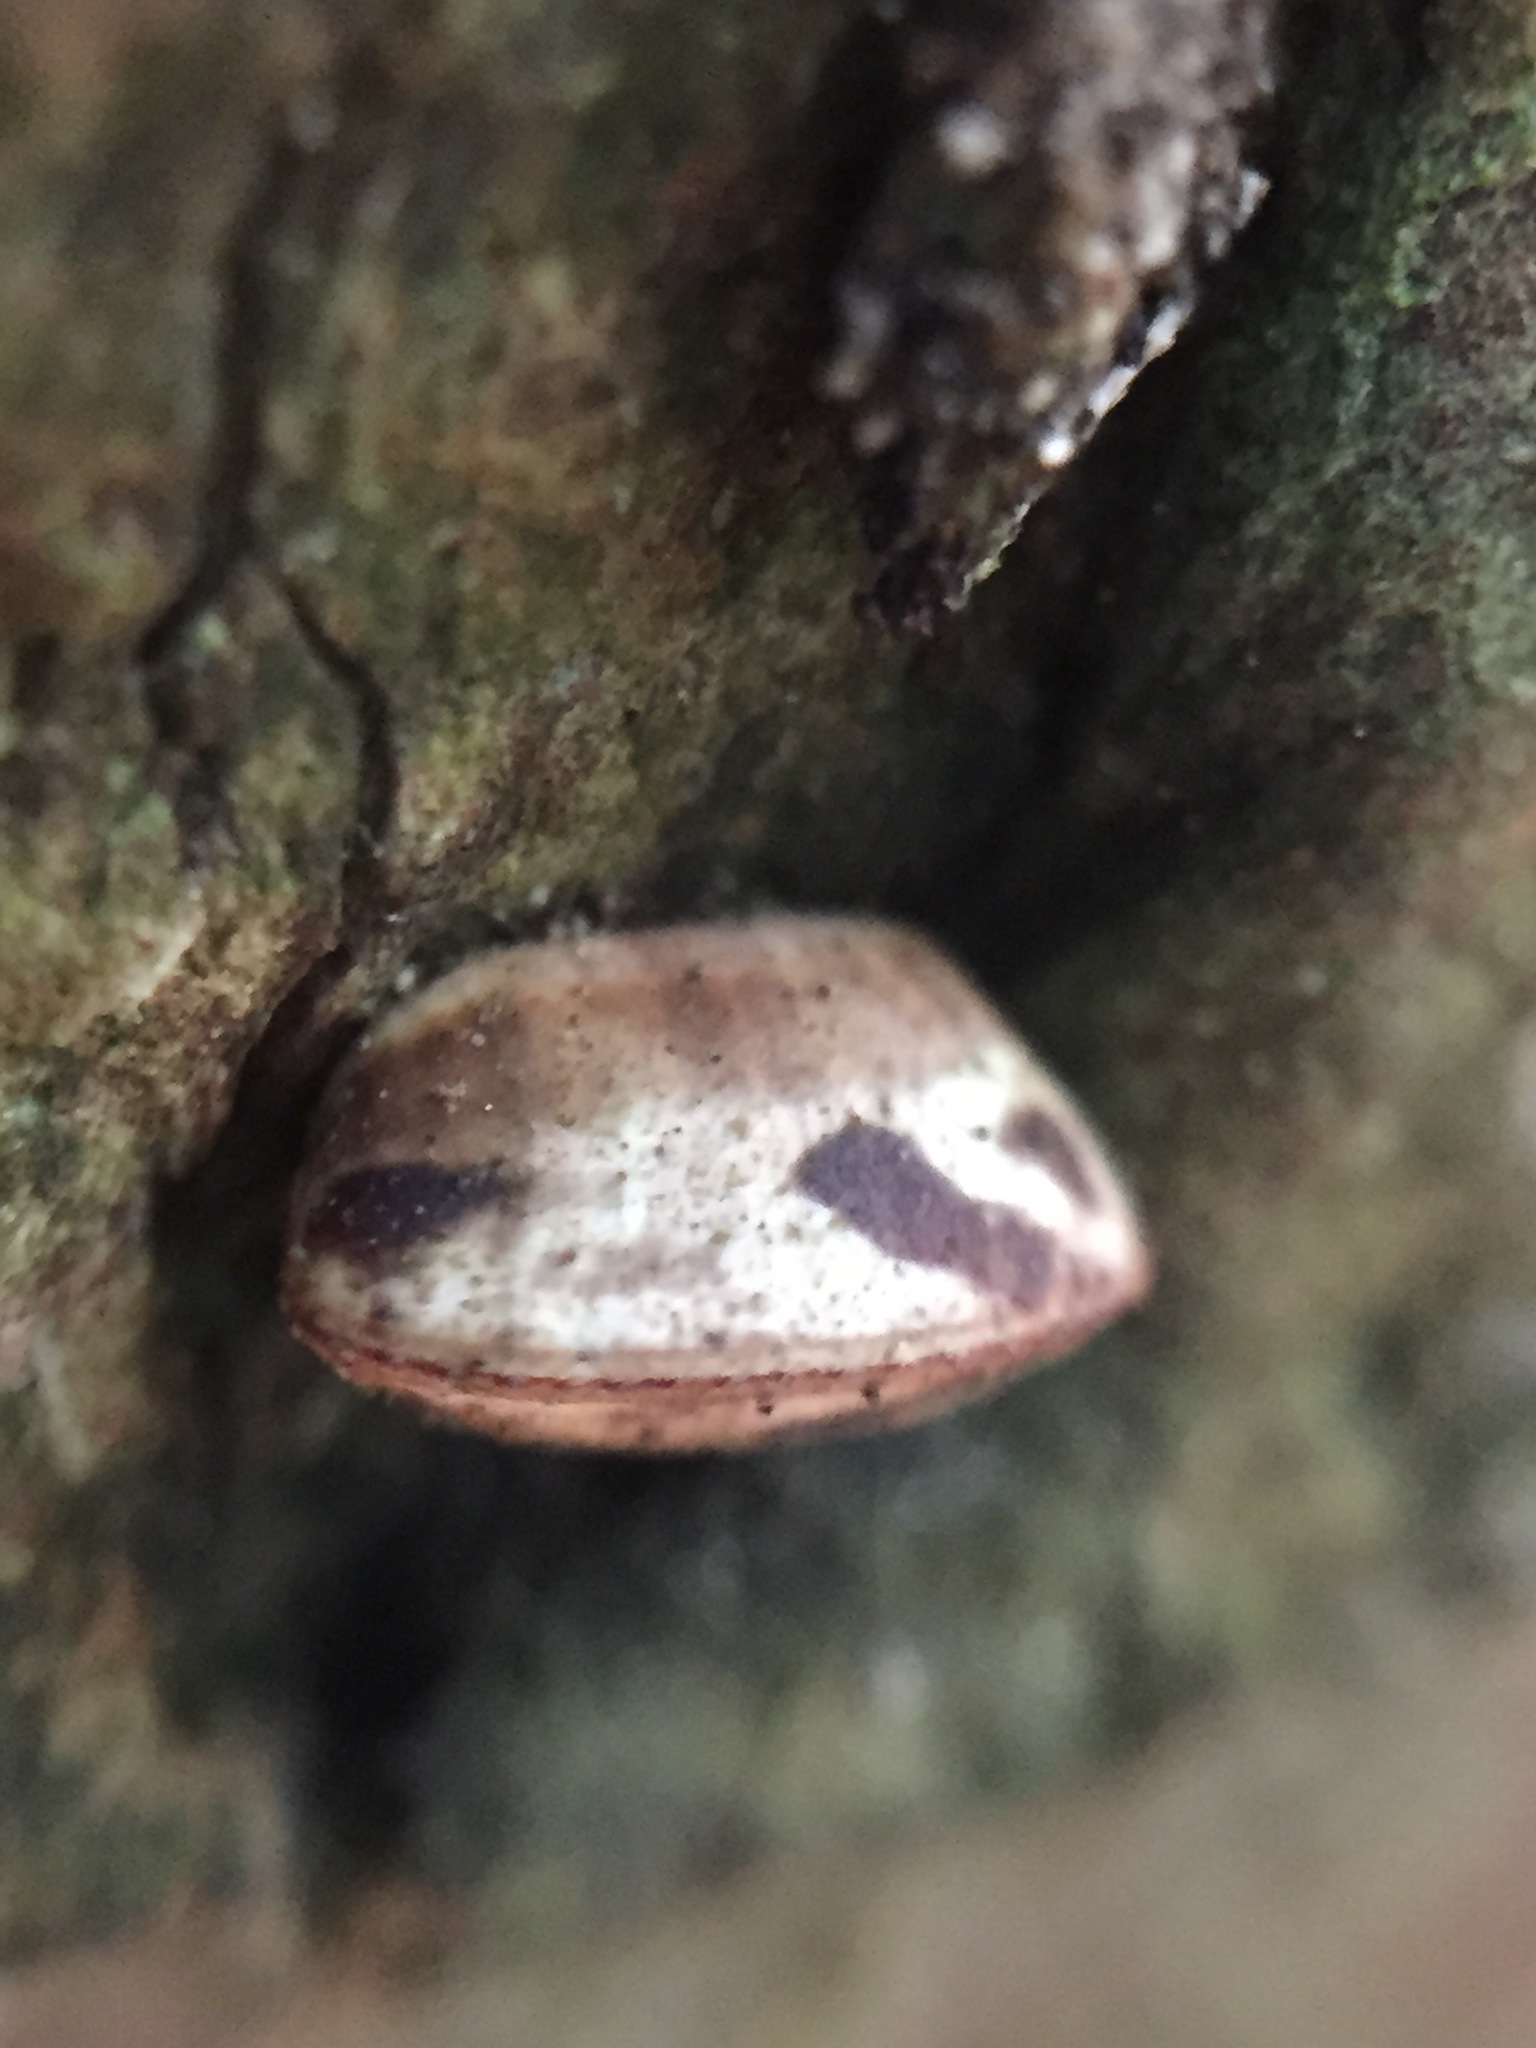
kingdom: Animalia
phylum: Arthropoda
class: Insecta
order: Blattodea
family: Ectobiidae
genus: Balta
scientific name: Balta bicolor
